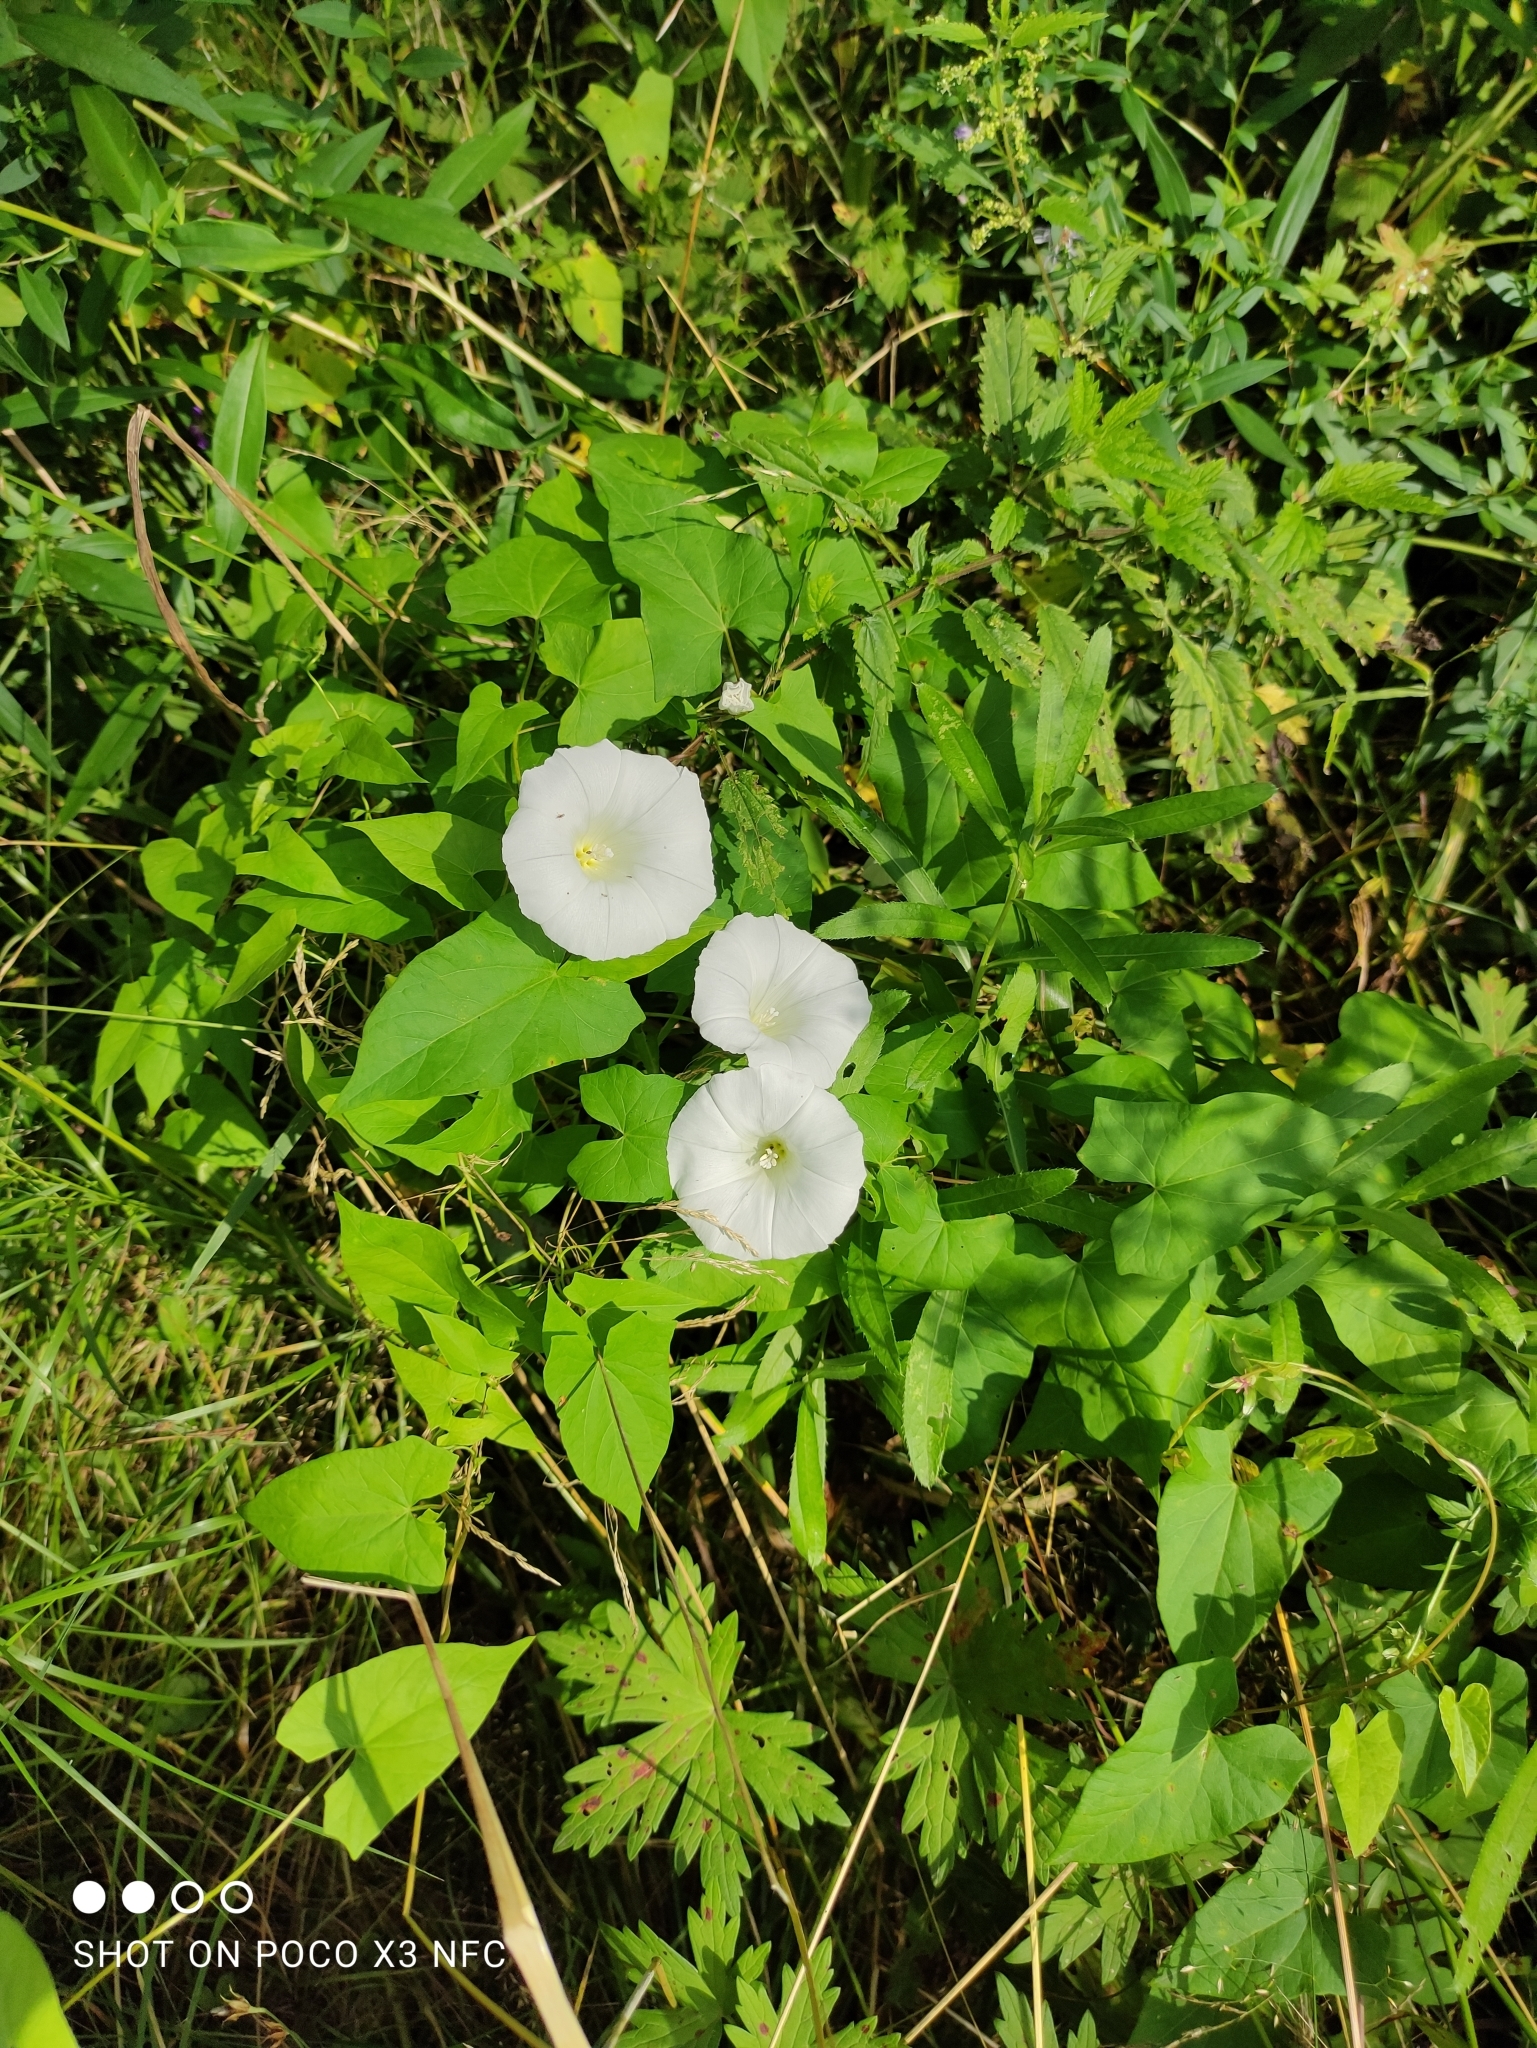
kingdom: Plantae
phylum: Tracheophyta
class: Magnoliopsida
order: Solanales
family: Convolvulaceae
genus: Calystegia
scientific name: Calystegia sepium
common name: Hedge bindweed
